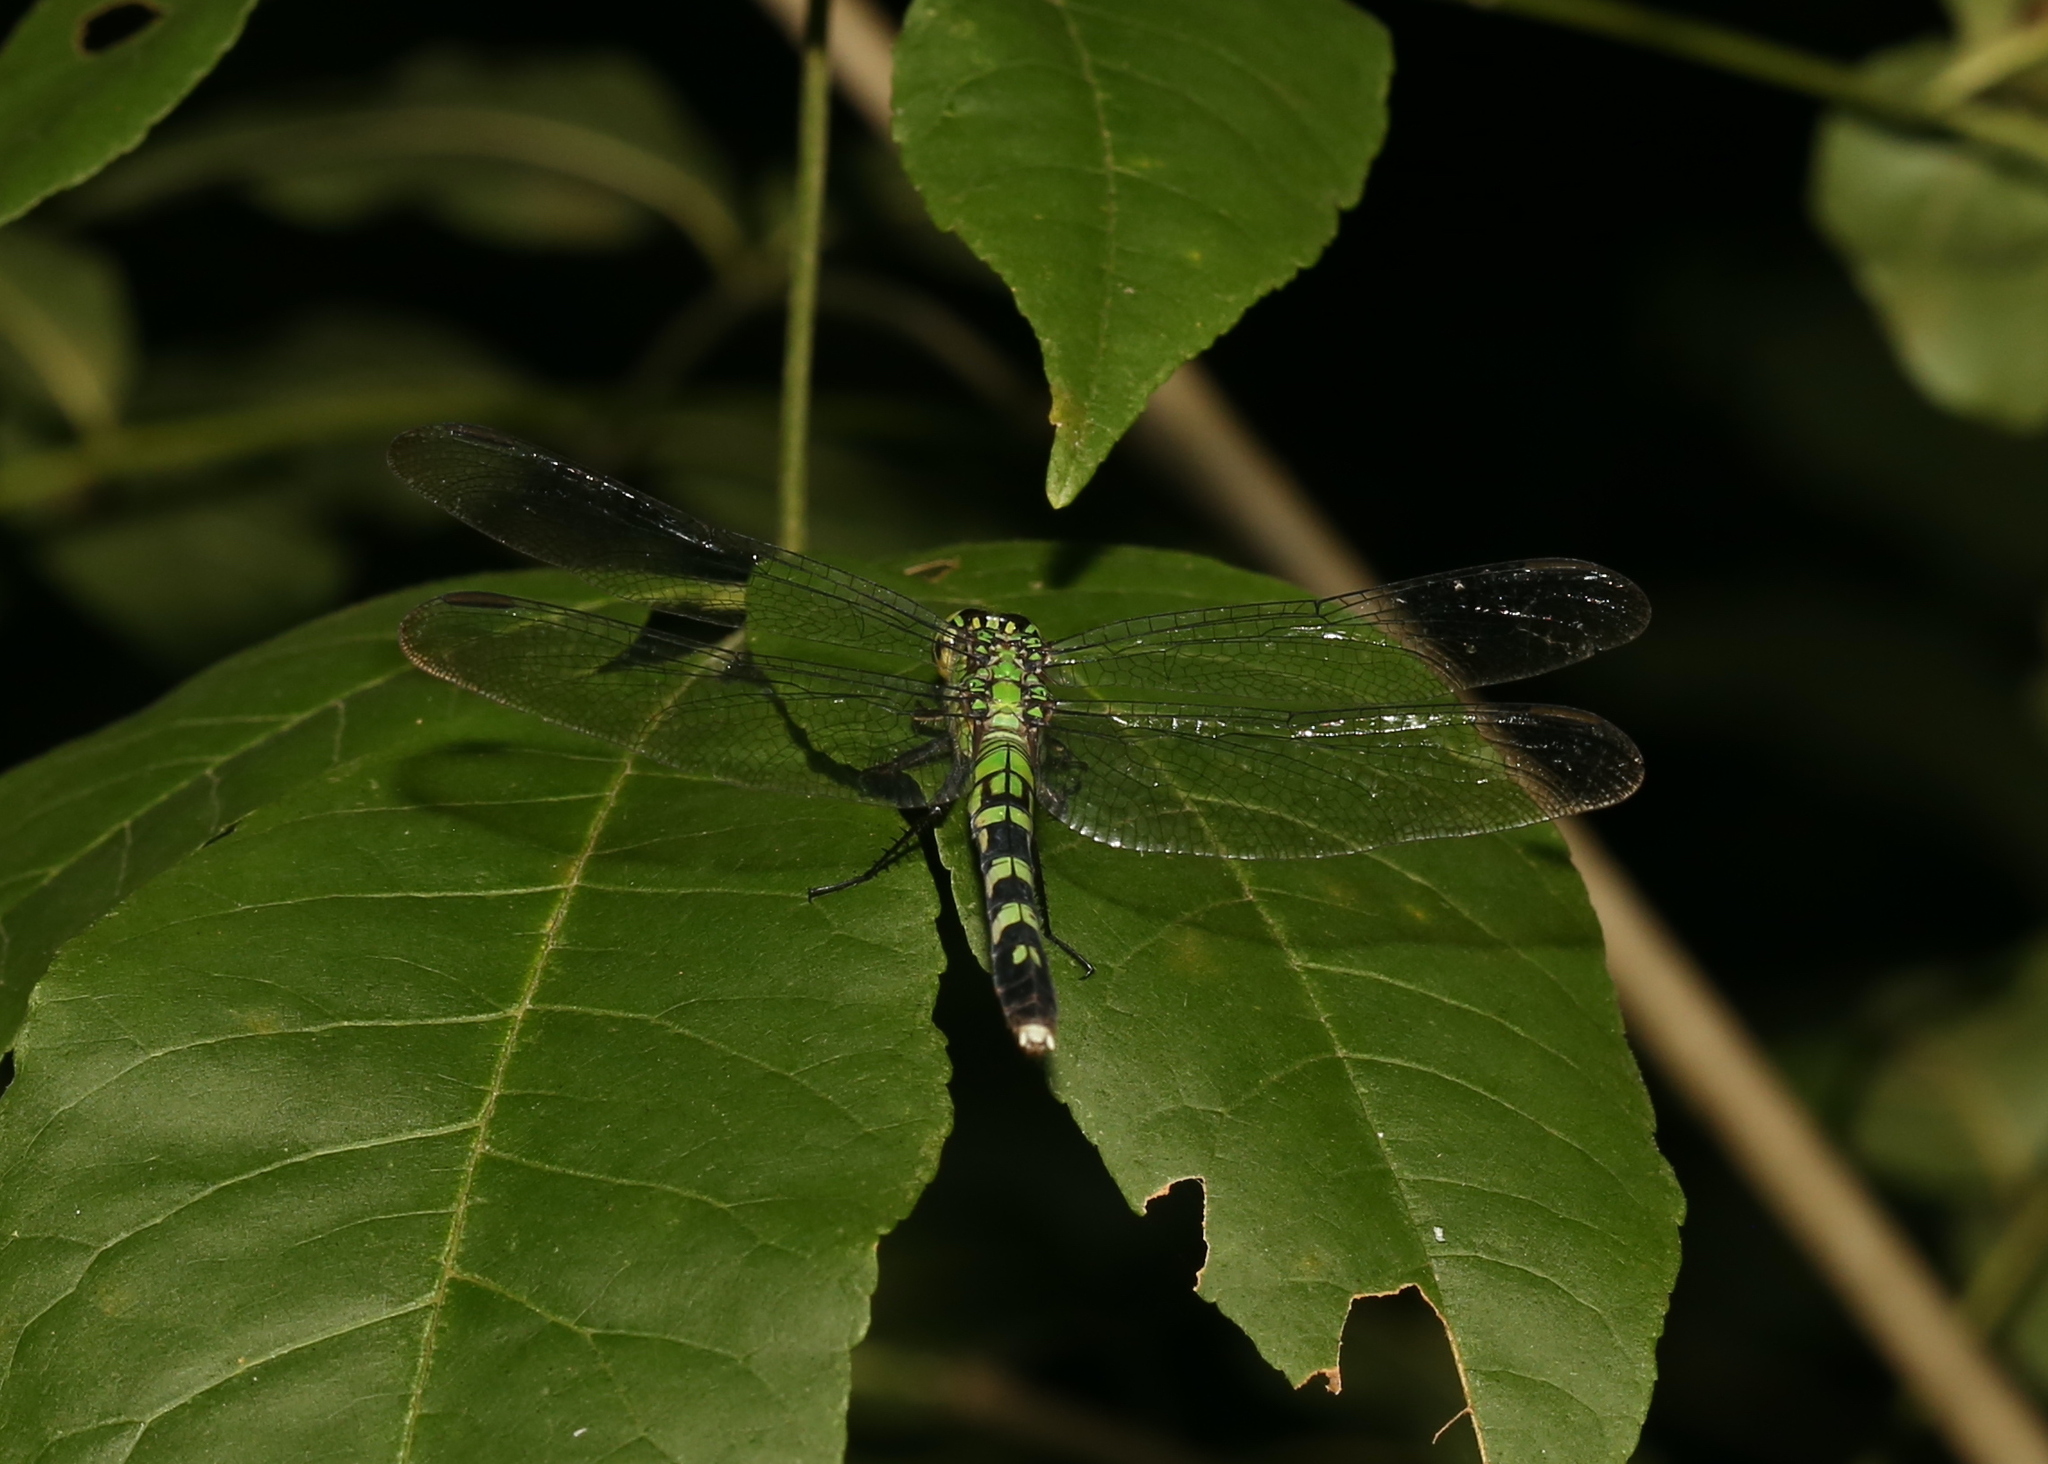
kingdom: Animalia
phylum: Arthropoda
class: Insecta
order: Odonata
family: Libellulidae
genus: Erythemis
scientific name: Erythemis simplicicollis
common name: Eastern pondhawk
